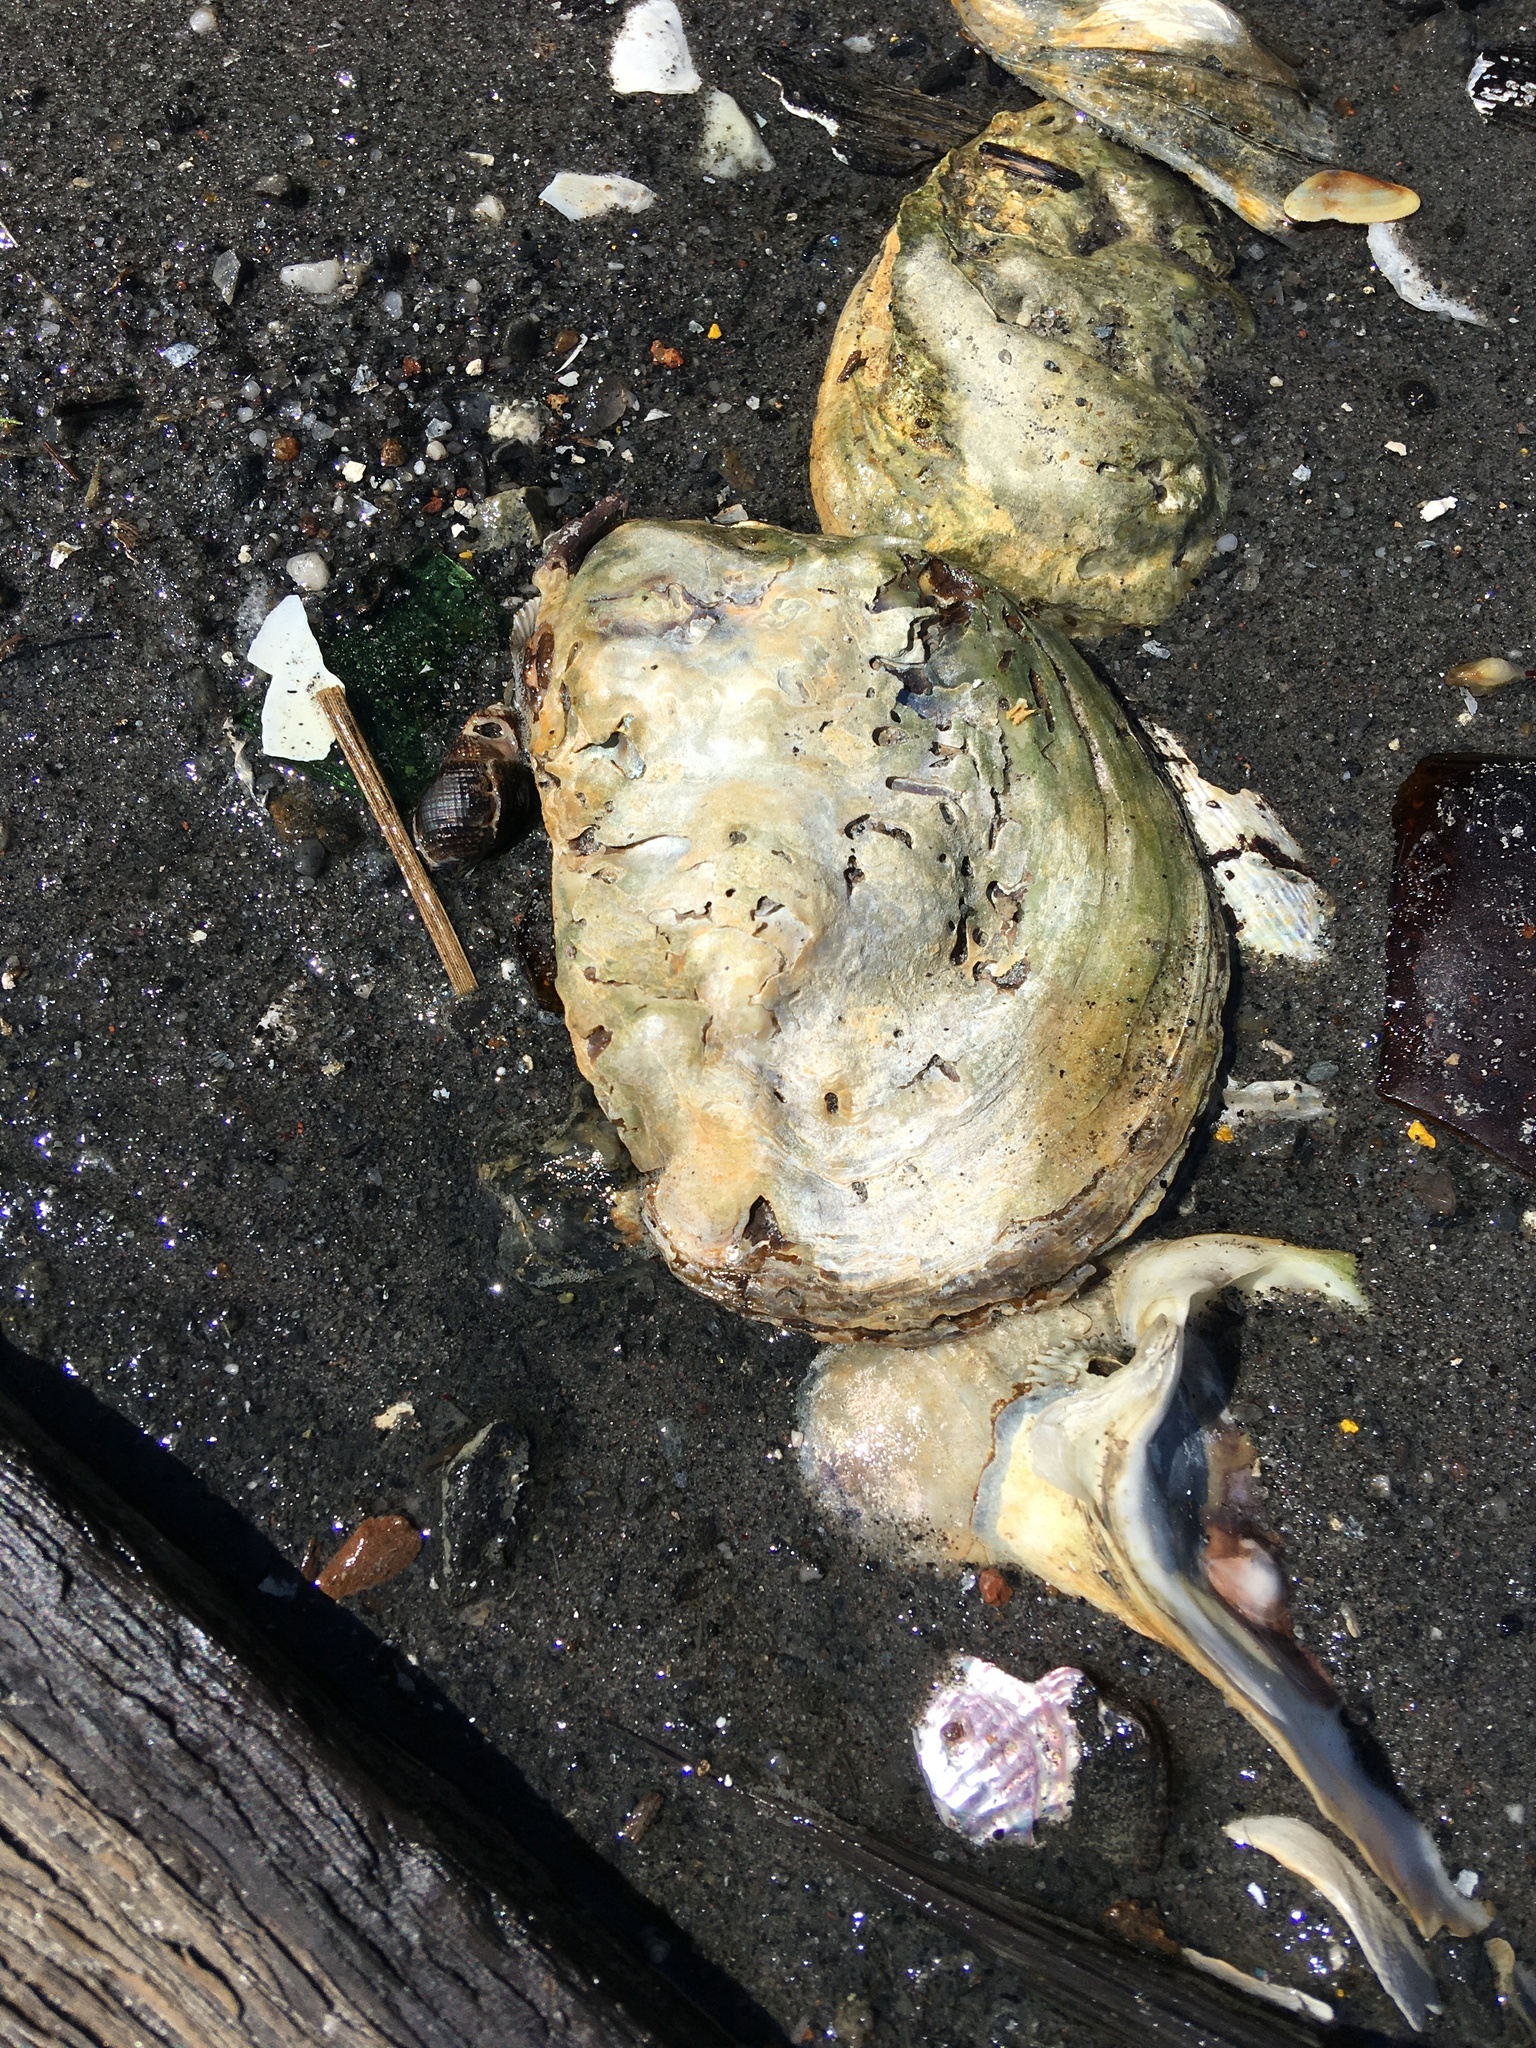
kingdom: Animalia
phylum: Mollusca
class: Bivalvia
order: Ostreida
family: Ostreidae
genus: Crassostrea
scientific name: Crassostrea virginica
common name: American oyster
